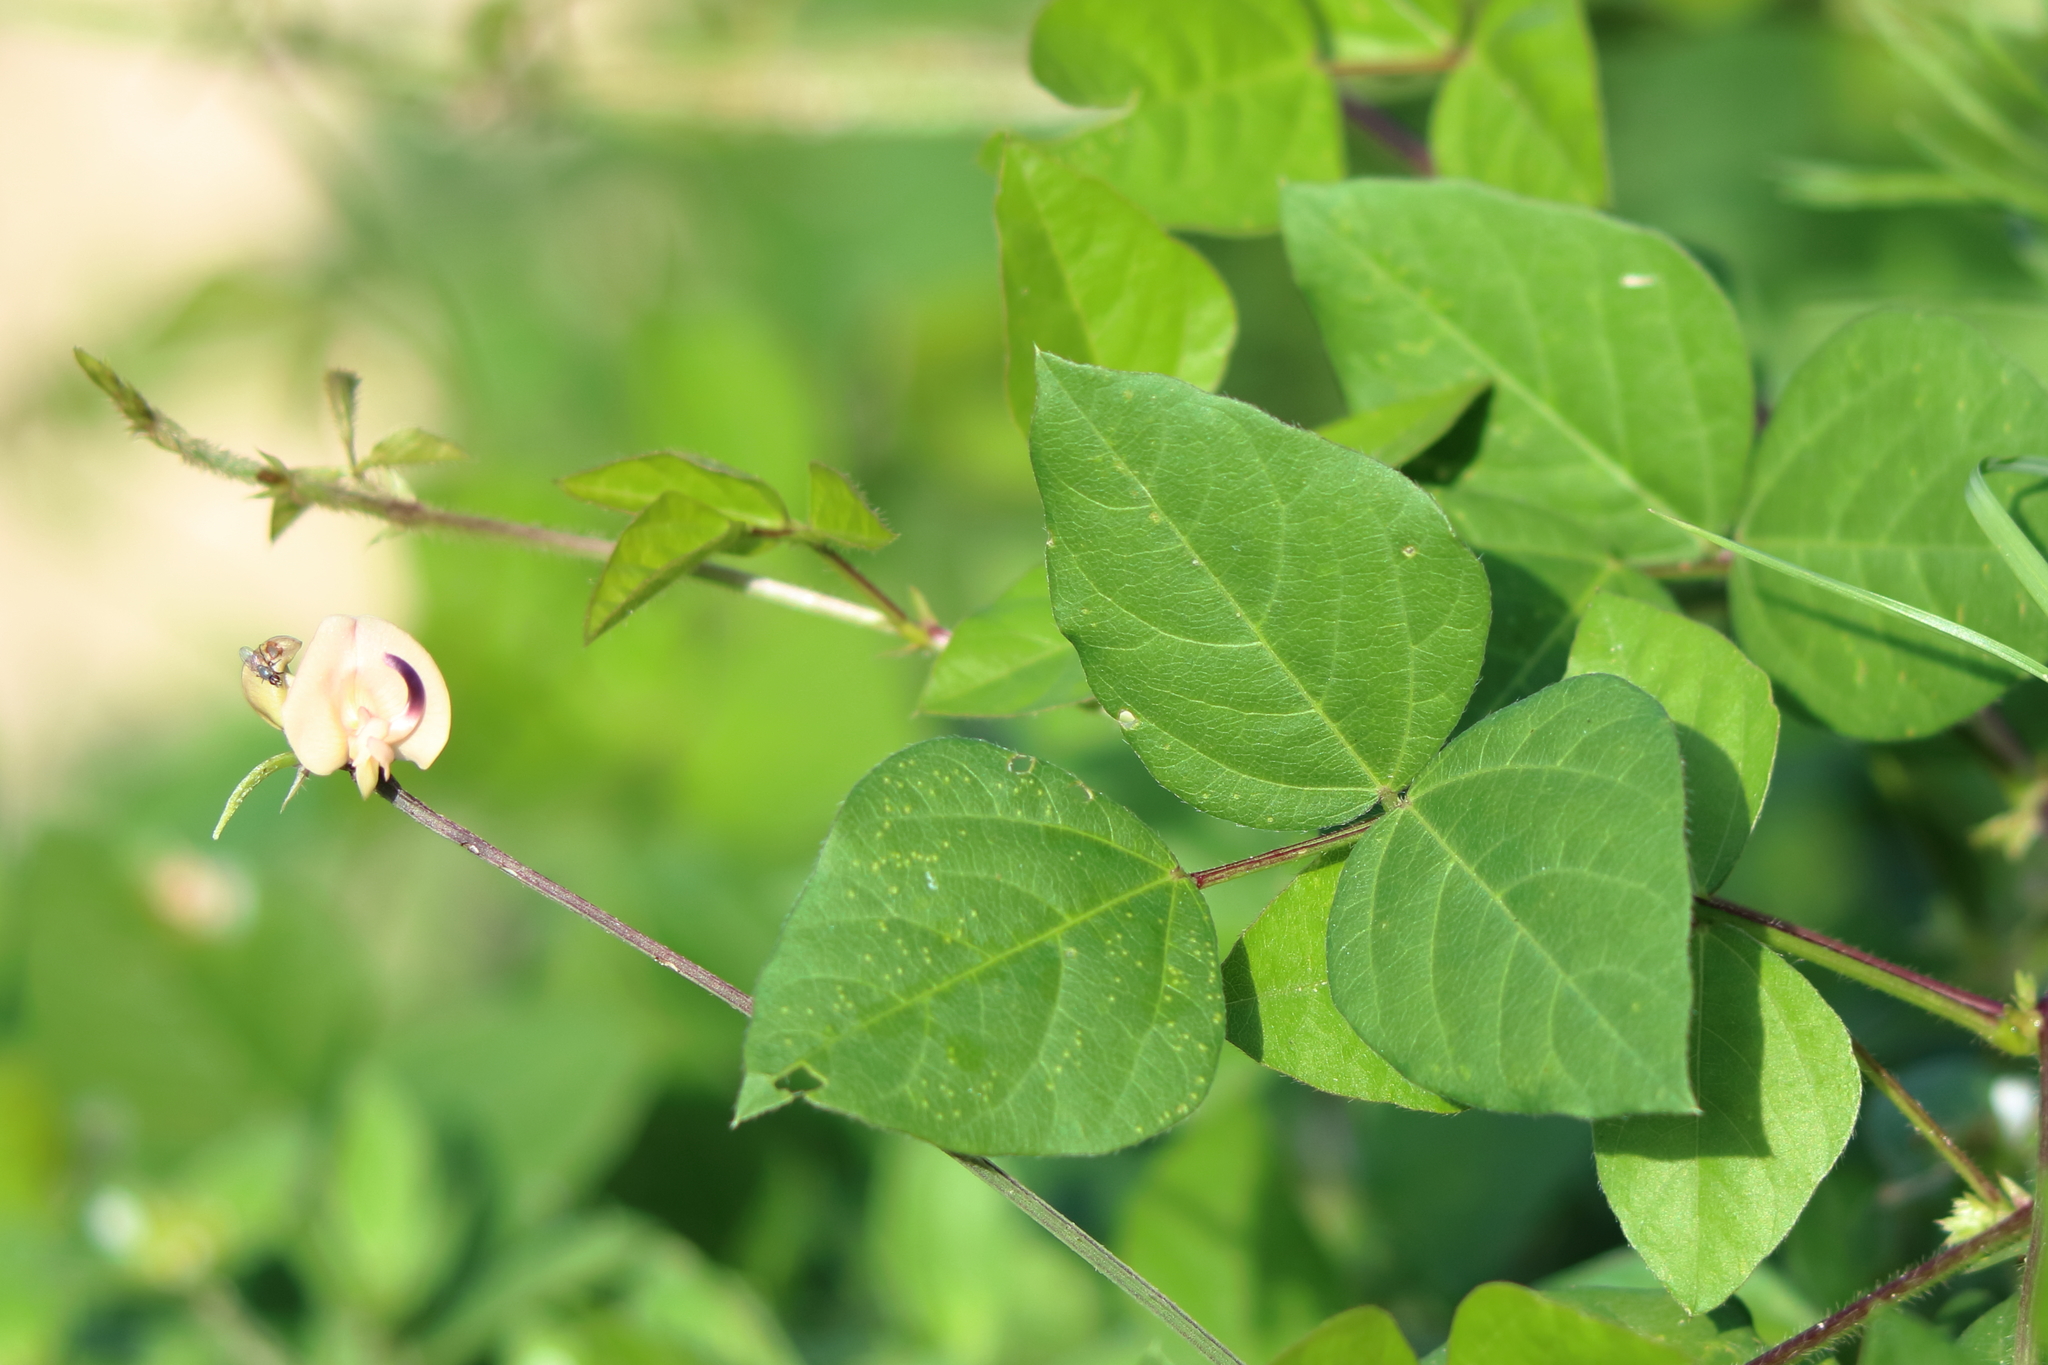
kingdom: Plantae
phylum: Tracheophyta
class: Magnoliopsida
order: Fabales
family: Fabaceae
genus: Strophostyles
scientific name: Strophostyles helvola
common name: Trailing wild bean
